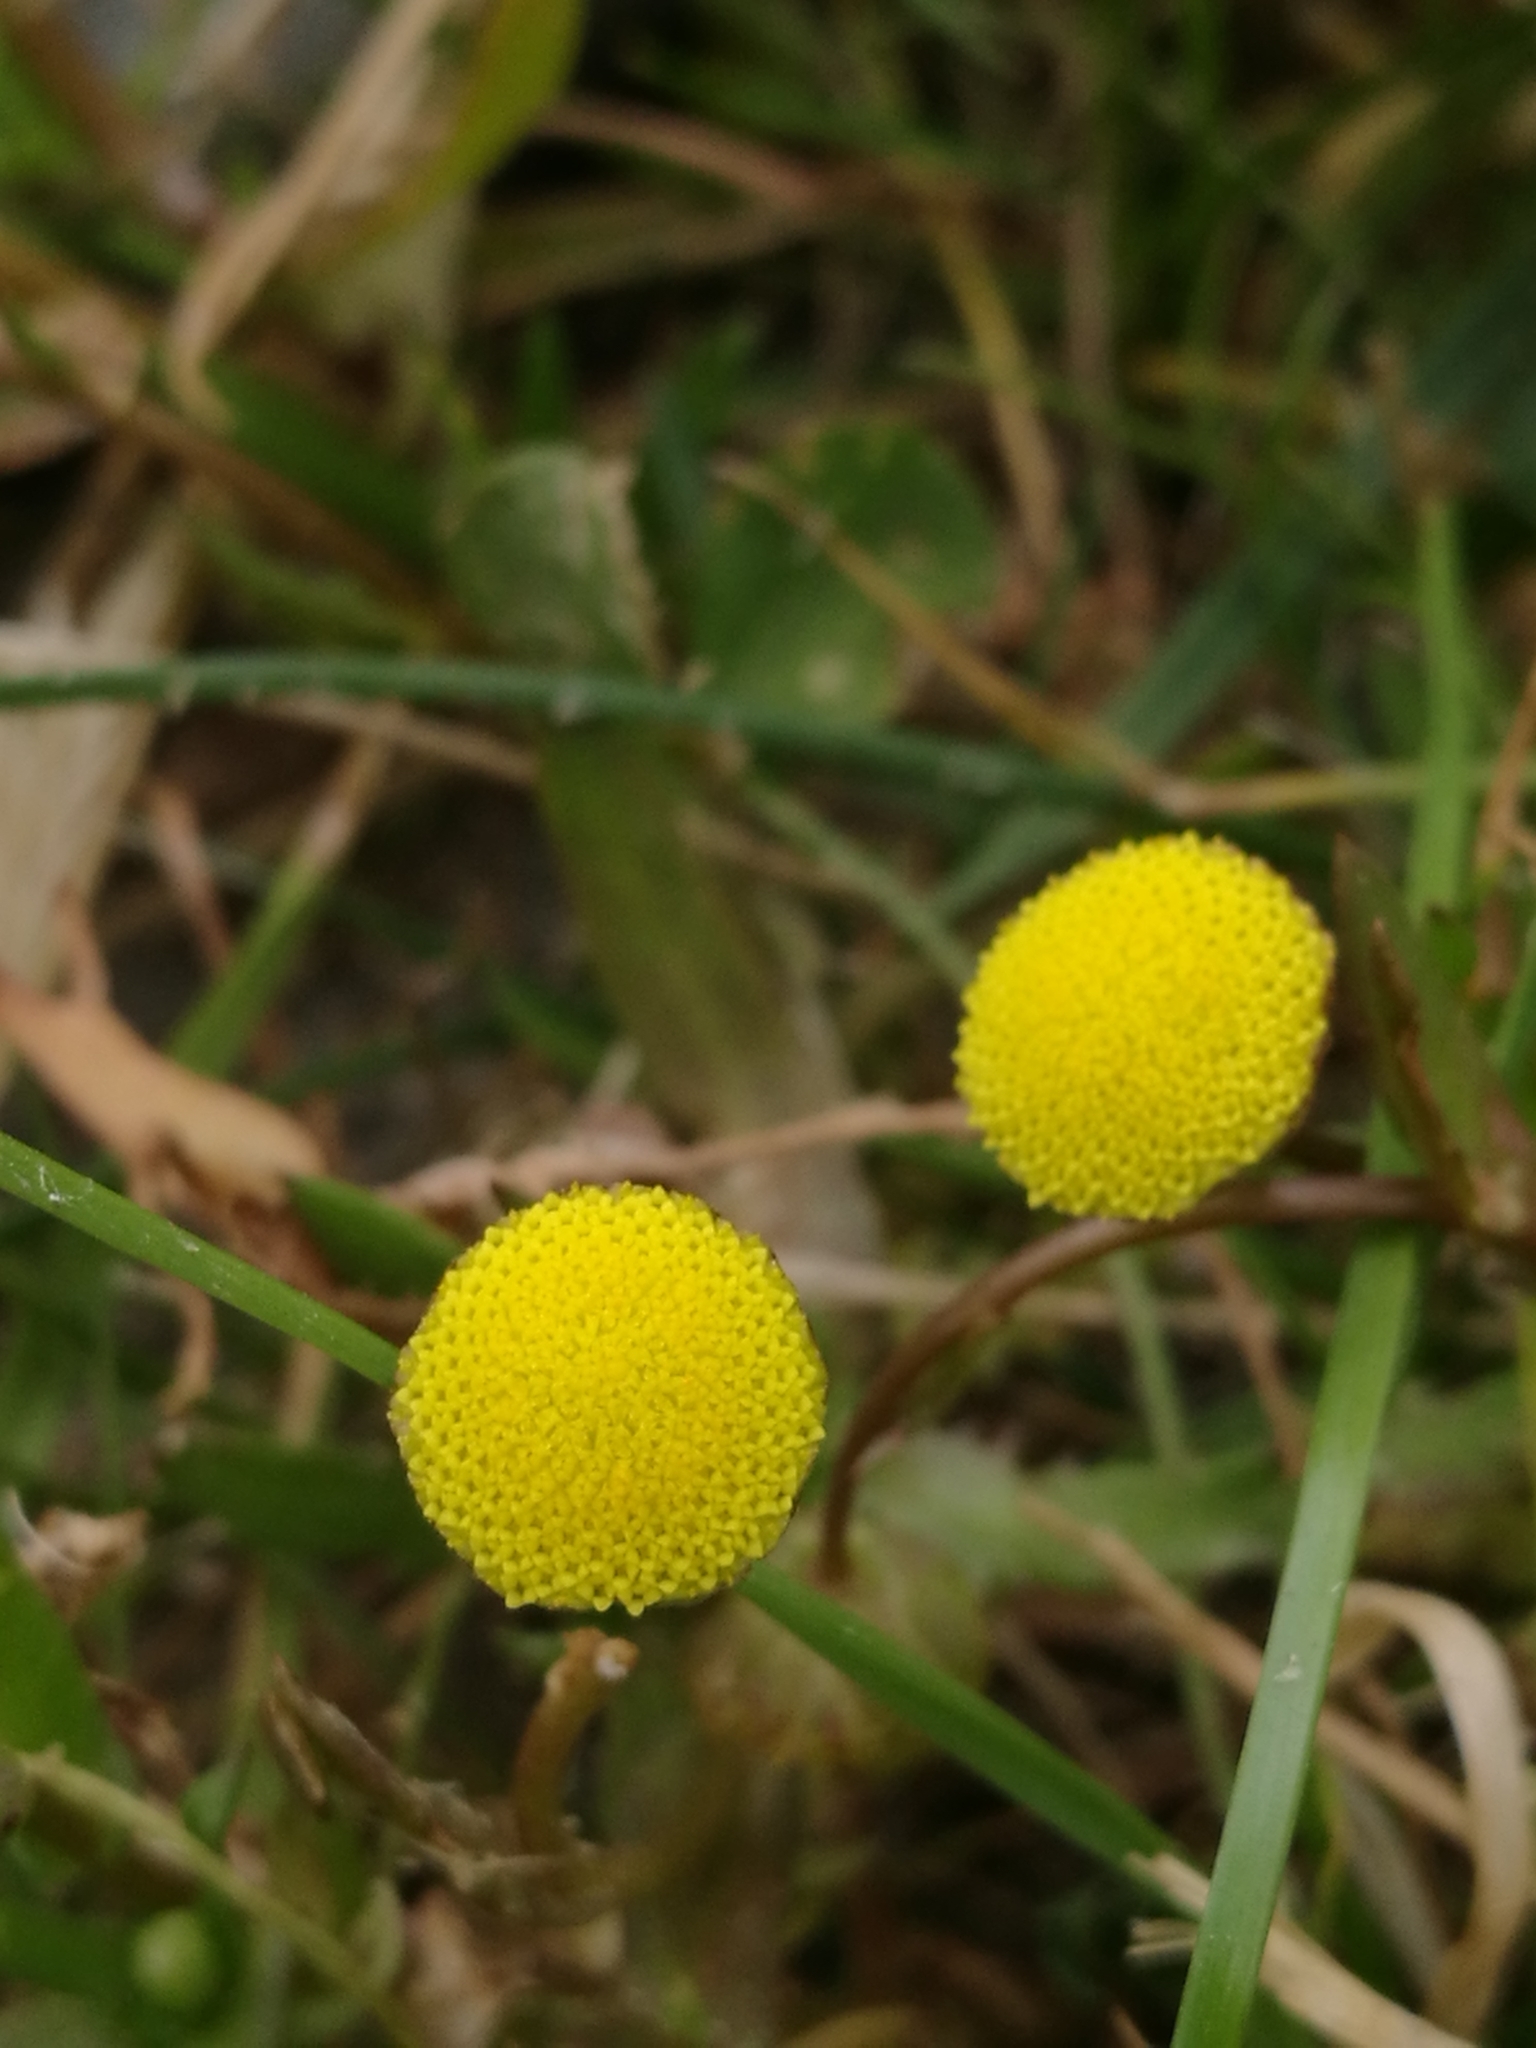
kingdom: Plantae
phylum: Tracheophyta
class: Magnoliopsida
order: Asterales
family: Asteraceae
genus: Cotula
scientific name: Cotula coronopifolia
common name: Buttonweed
